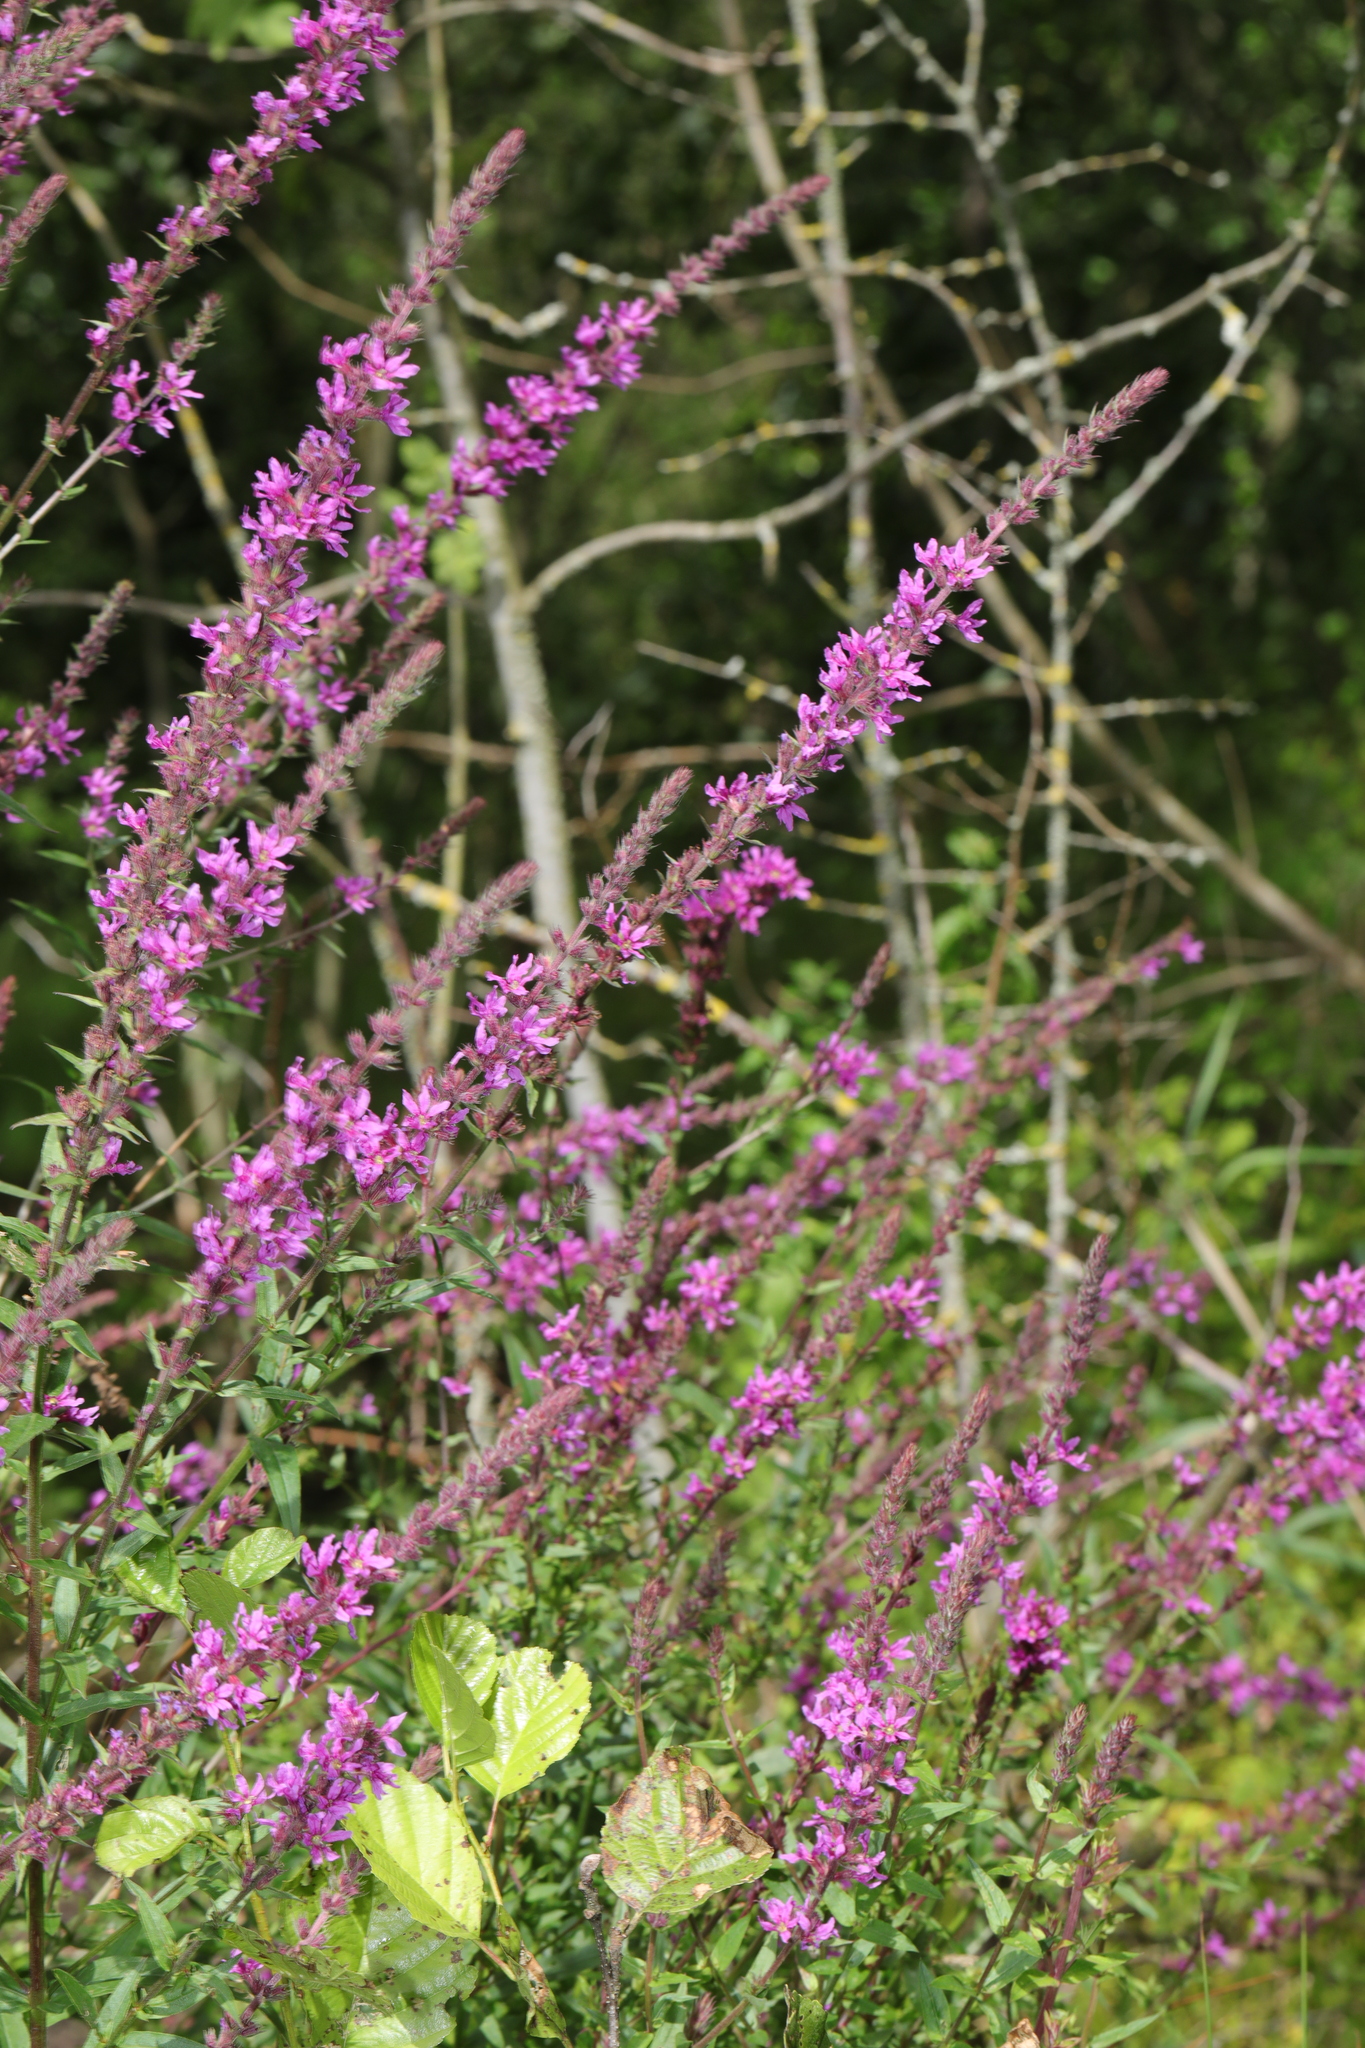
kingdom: Plantae
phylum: Tracheophyta
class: Magnoliopsida
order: Myrtales
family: Lythraceae
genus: Lythrum
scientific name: Lythrum salicaria
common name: Purple loosestrife
